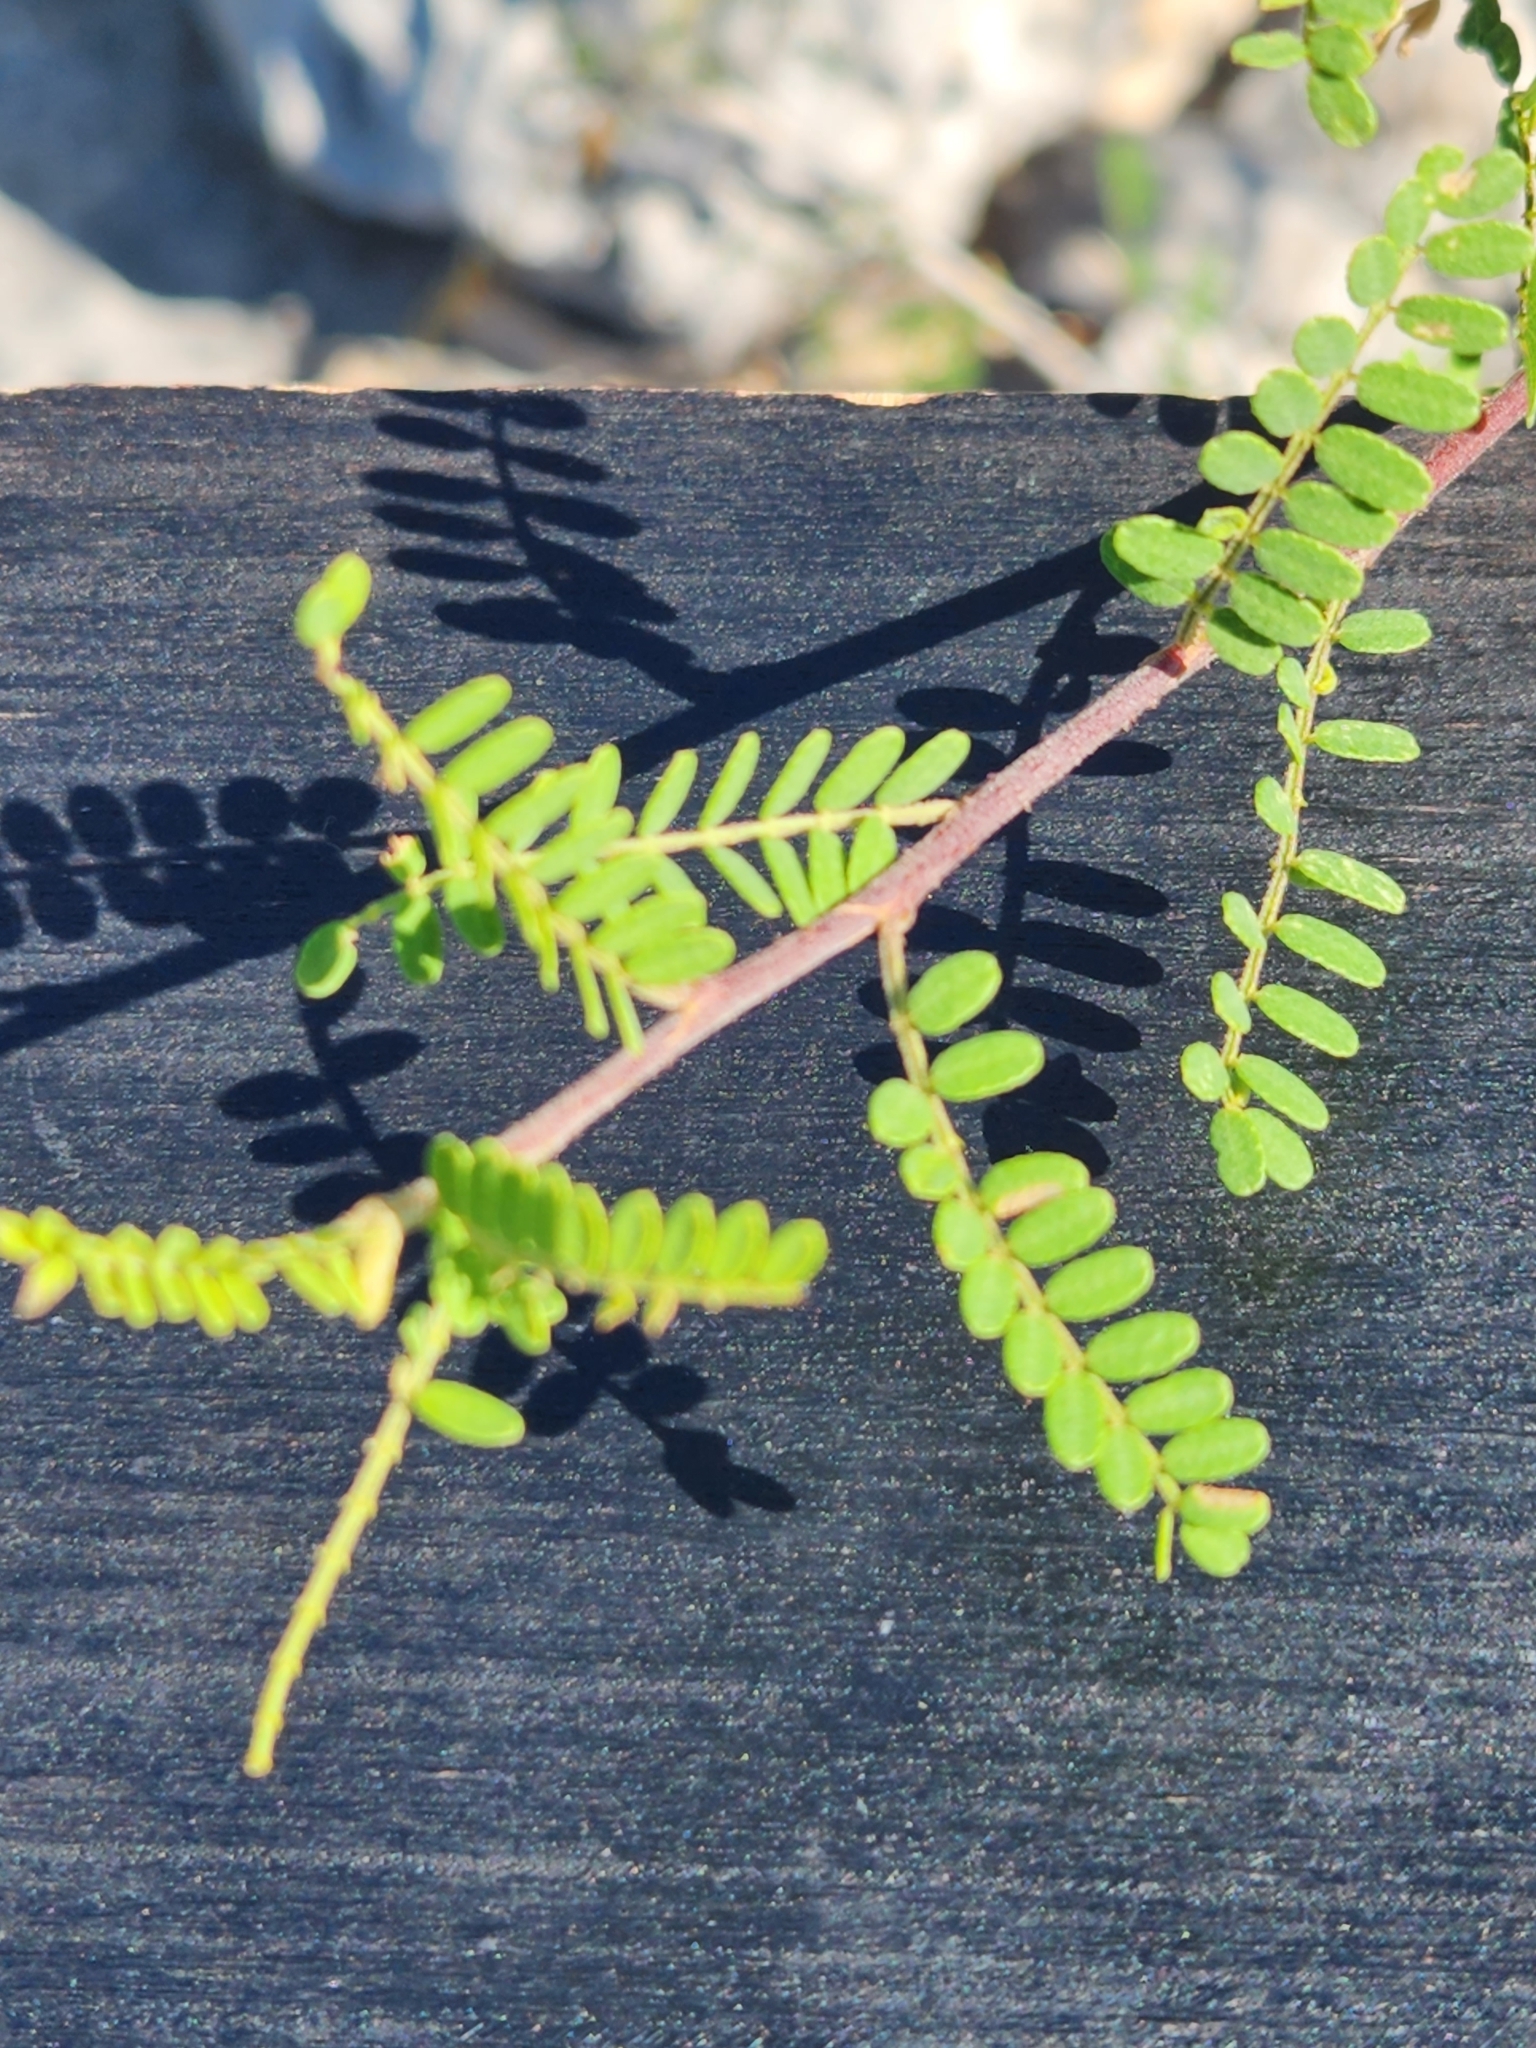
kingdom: Plantae
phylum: Tracheophyta
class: Magnoliopsida
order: Fabales
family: Fabaceae
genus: Eysenhardtia
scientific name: Eysenhardtia texana
